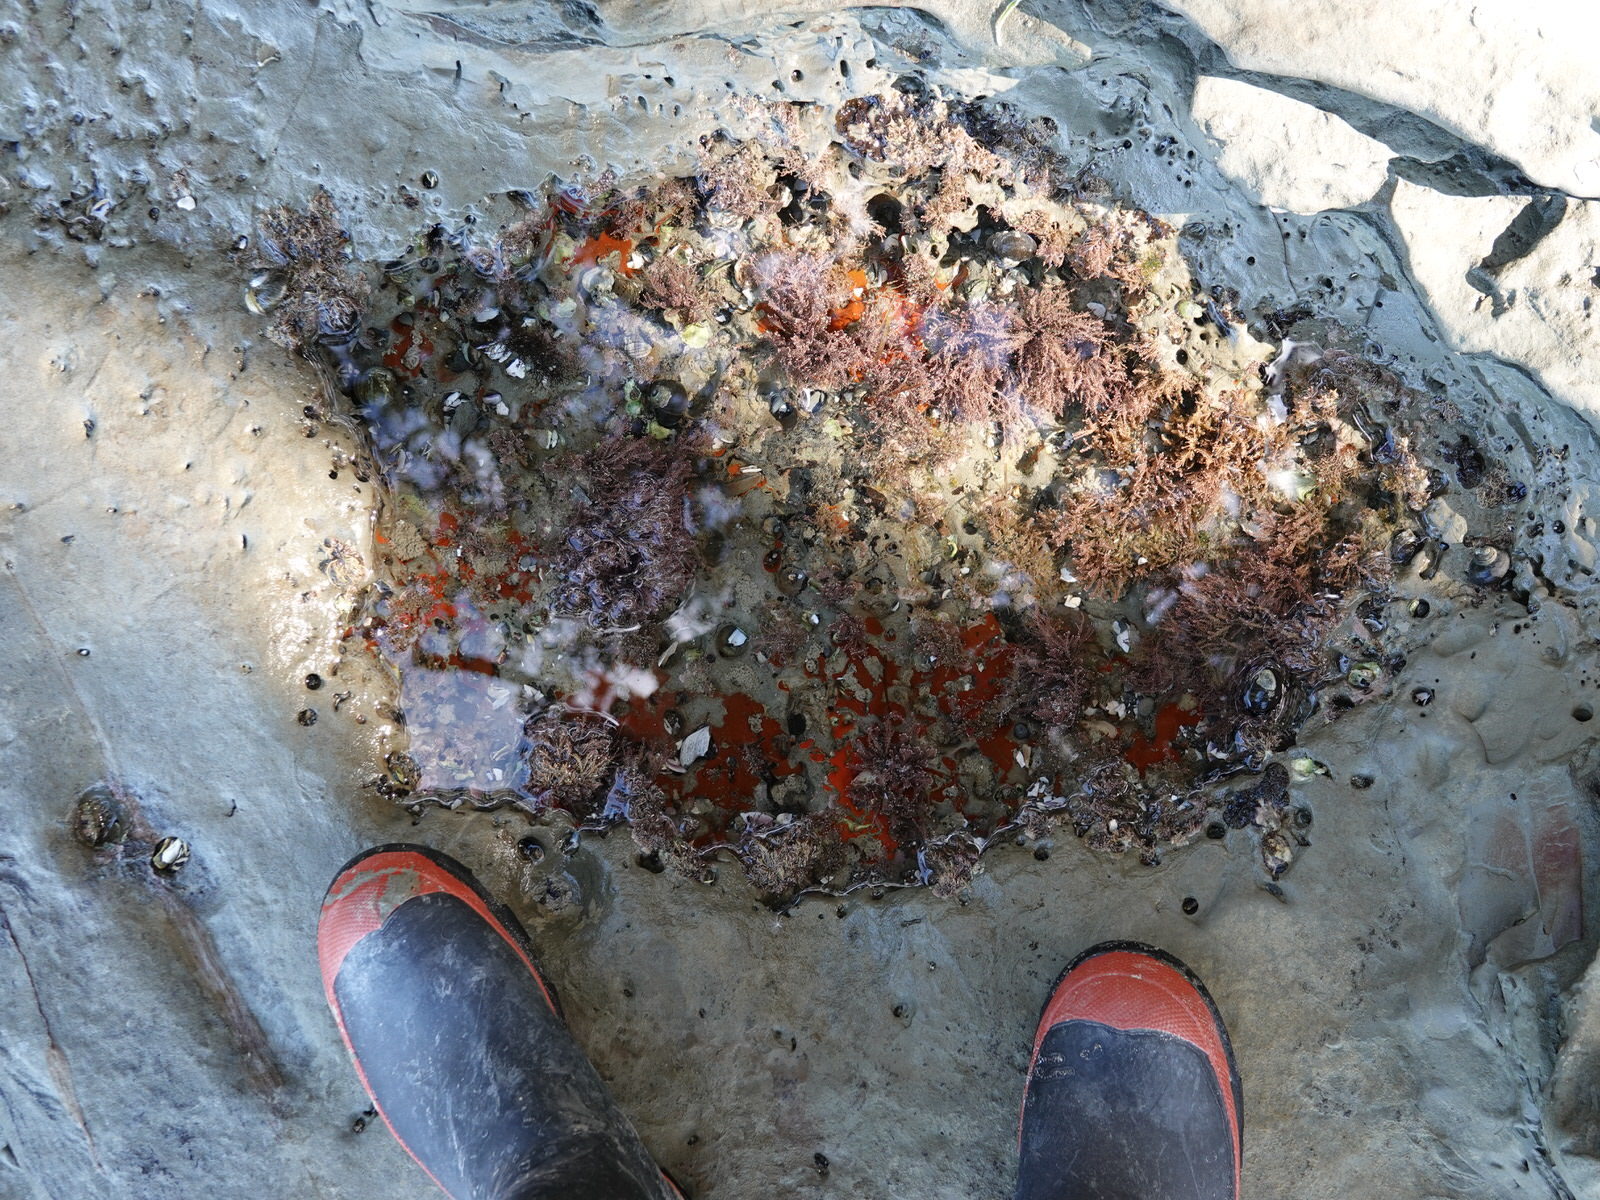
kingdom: Plantae
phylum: Rhodophyta
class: Florideophyceae
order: Corallinales
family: Corallinaceae
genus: Corallina
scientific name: Corallina officinalis
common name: Coral weed
